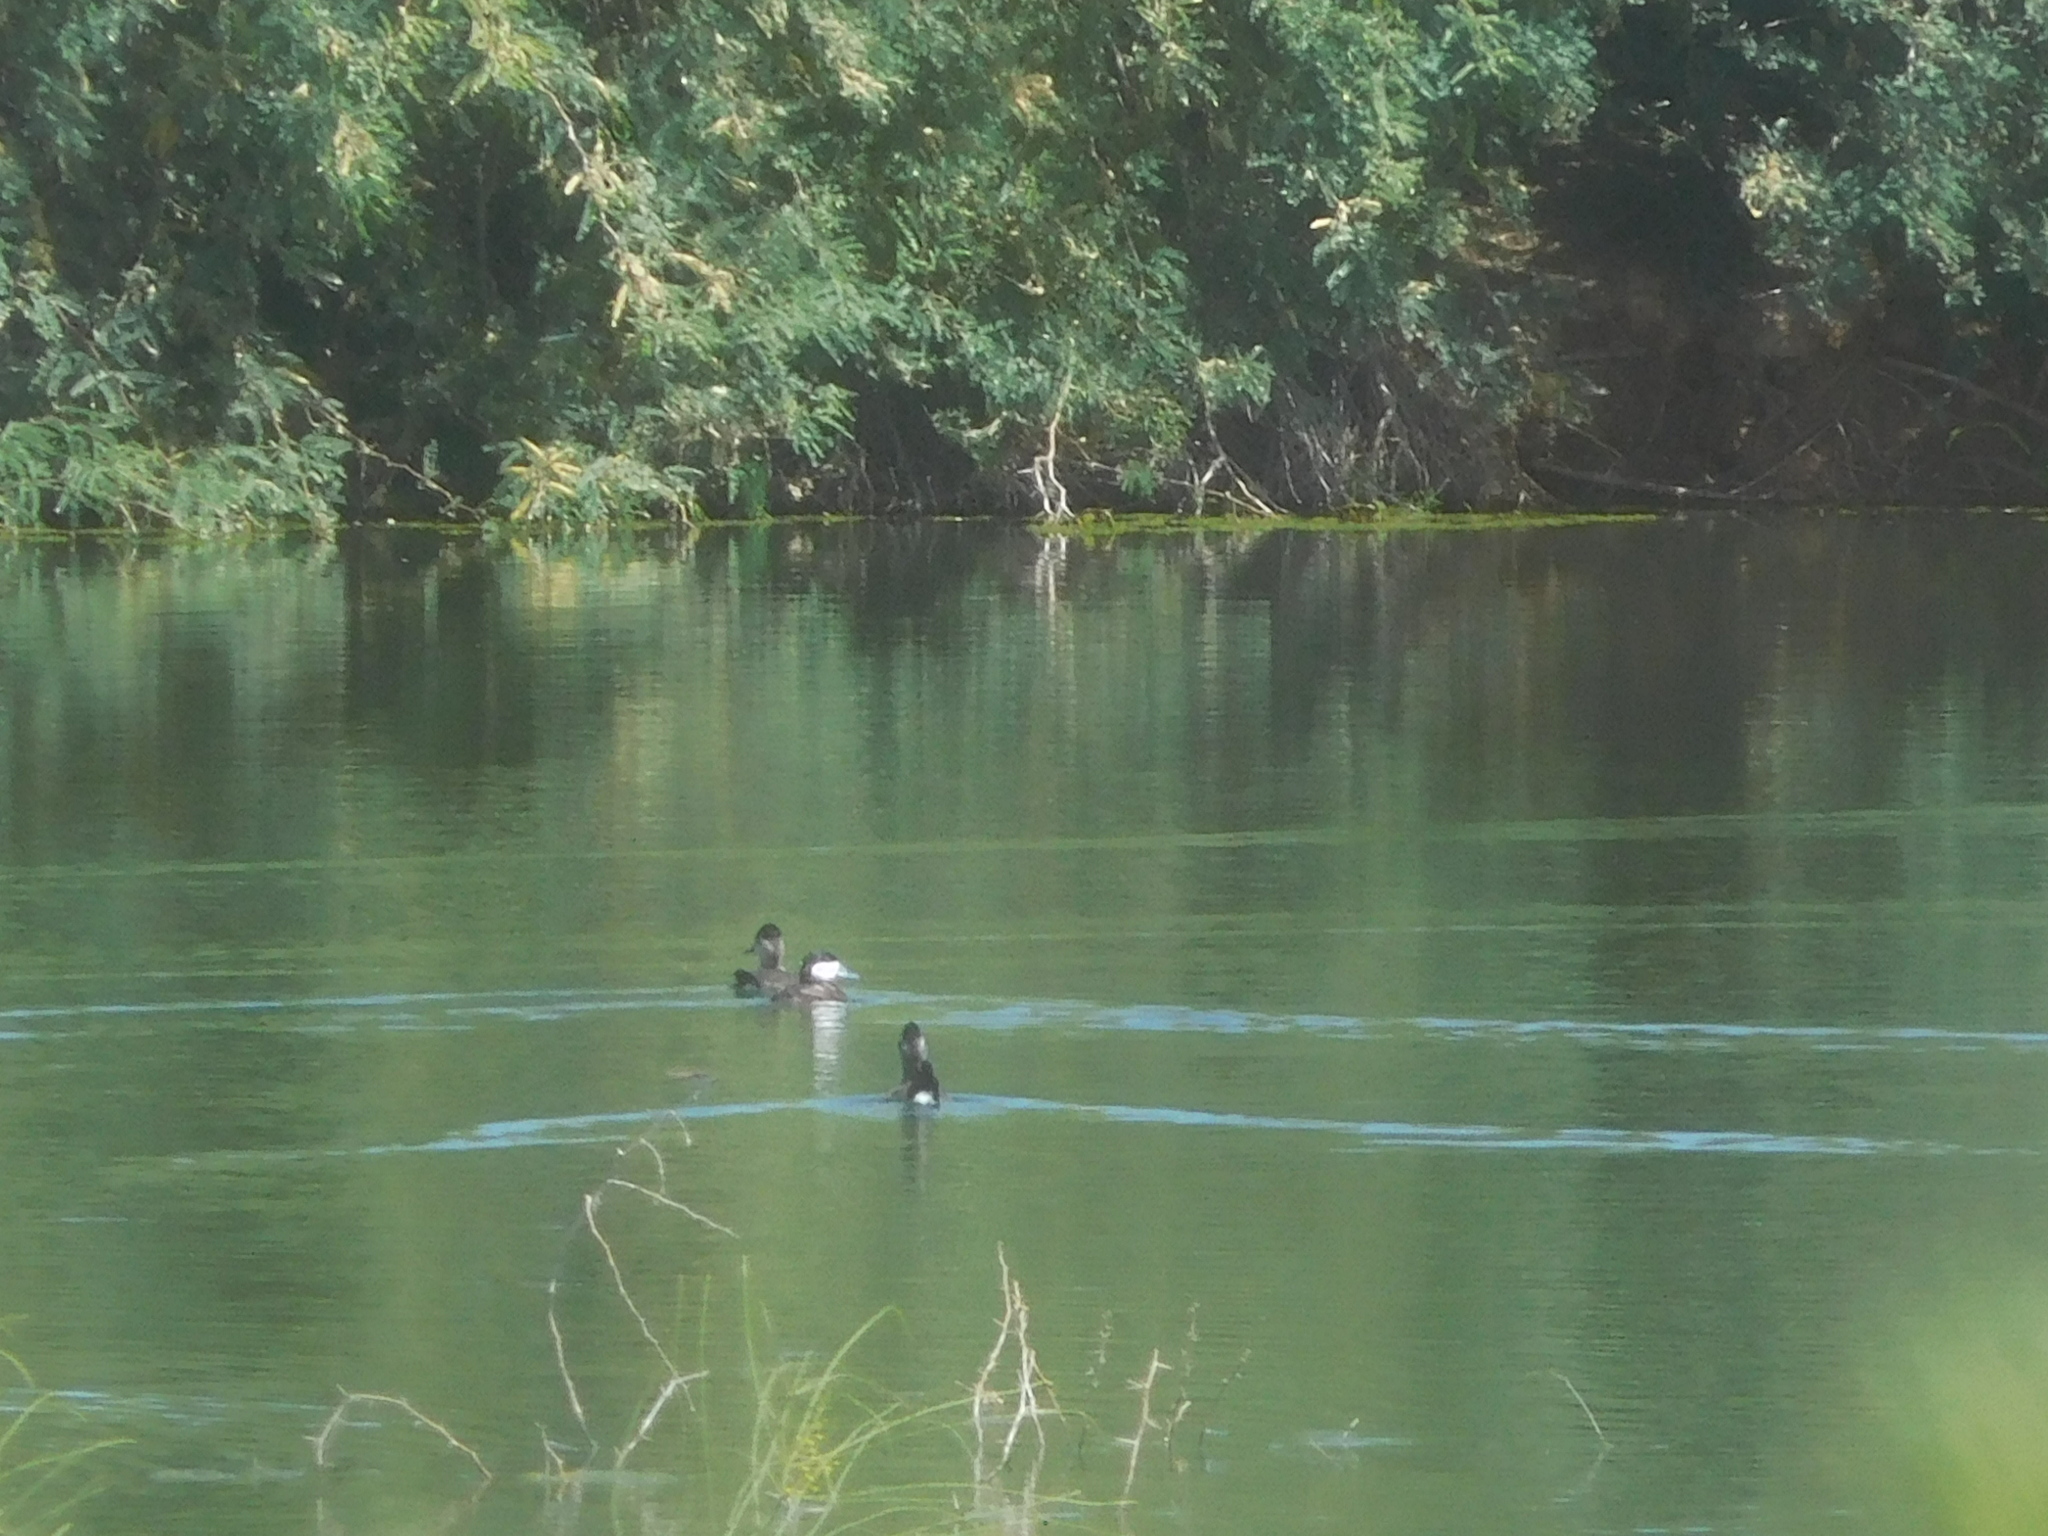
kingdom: Animalia
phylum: Chordata
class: Aves
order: Anseriformes
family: Anatidae
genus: Oxyura
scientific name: Oxyura jamaicensis
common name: Ruddy duck
